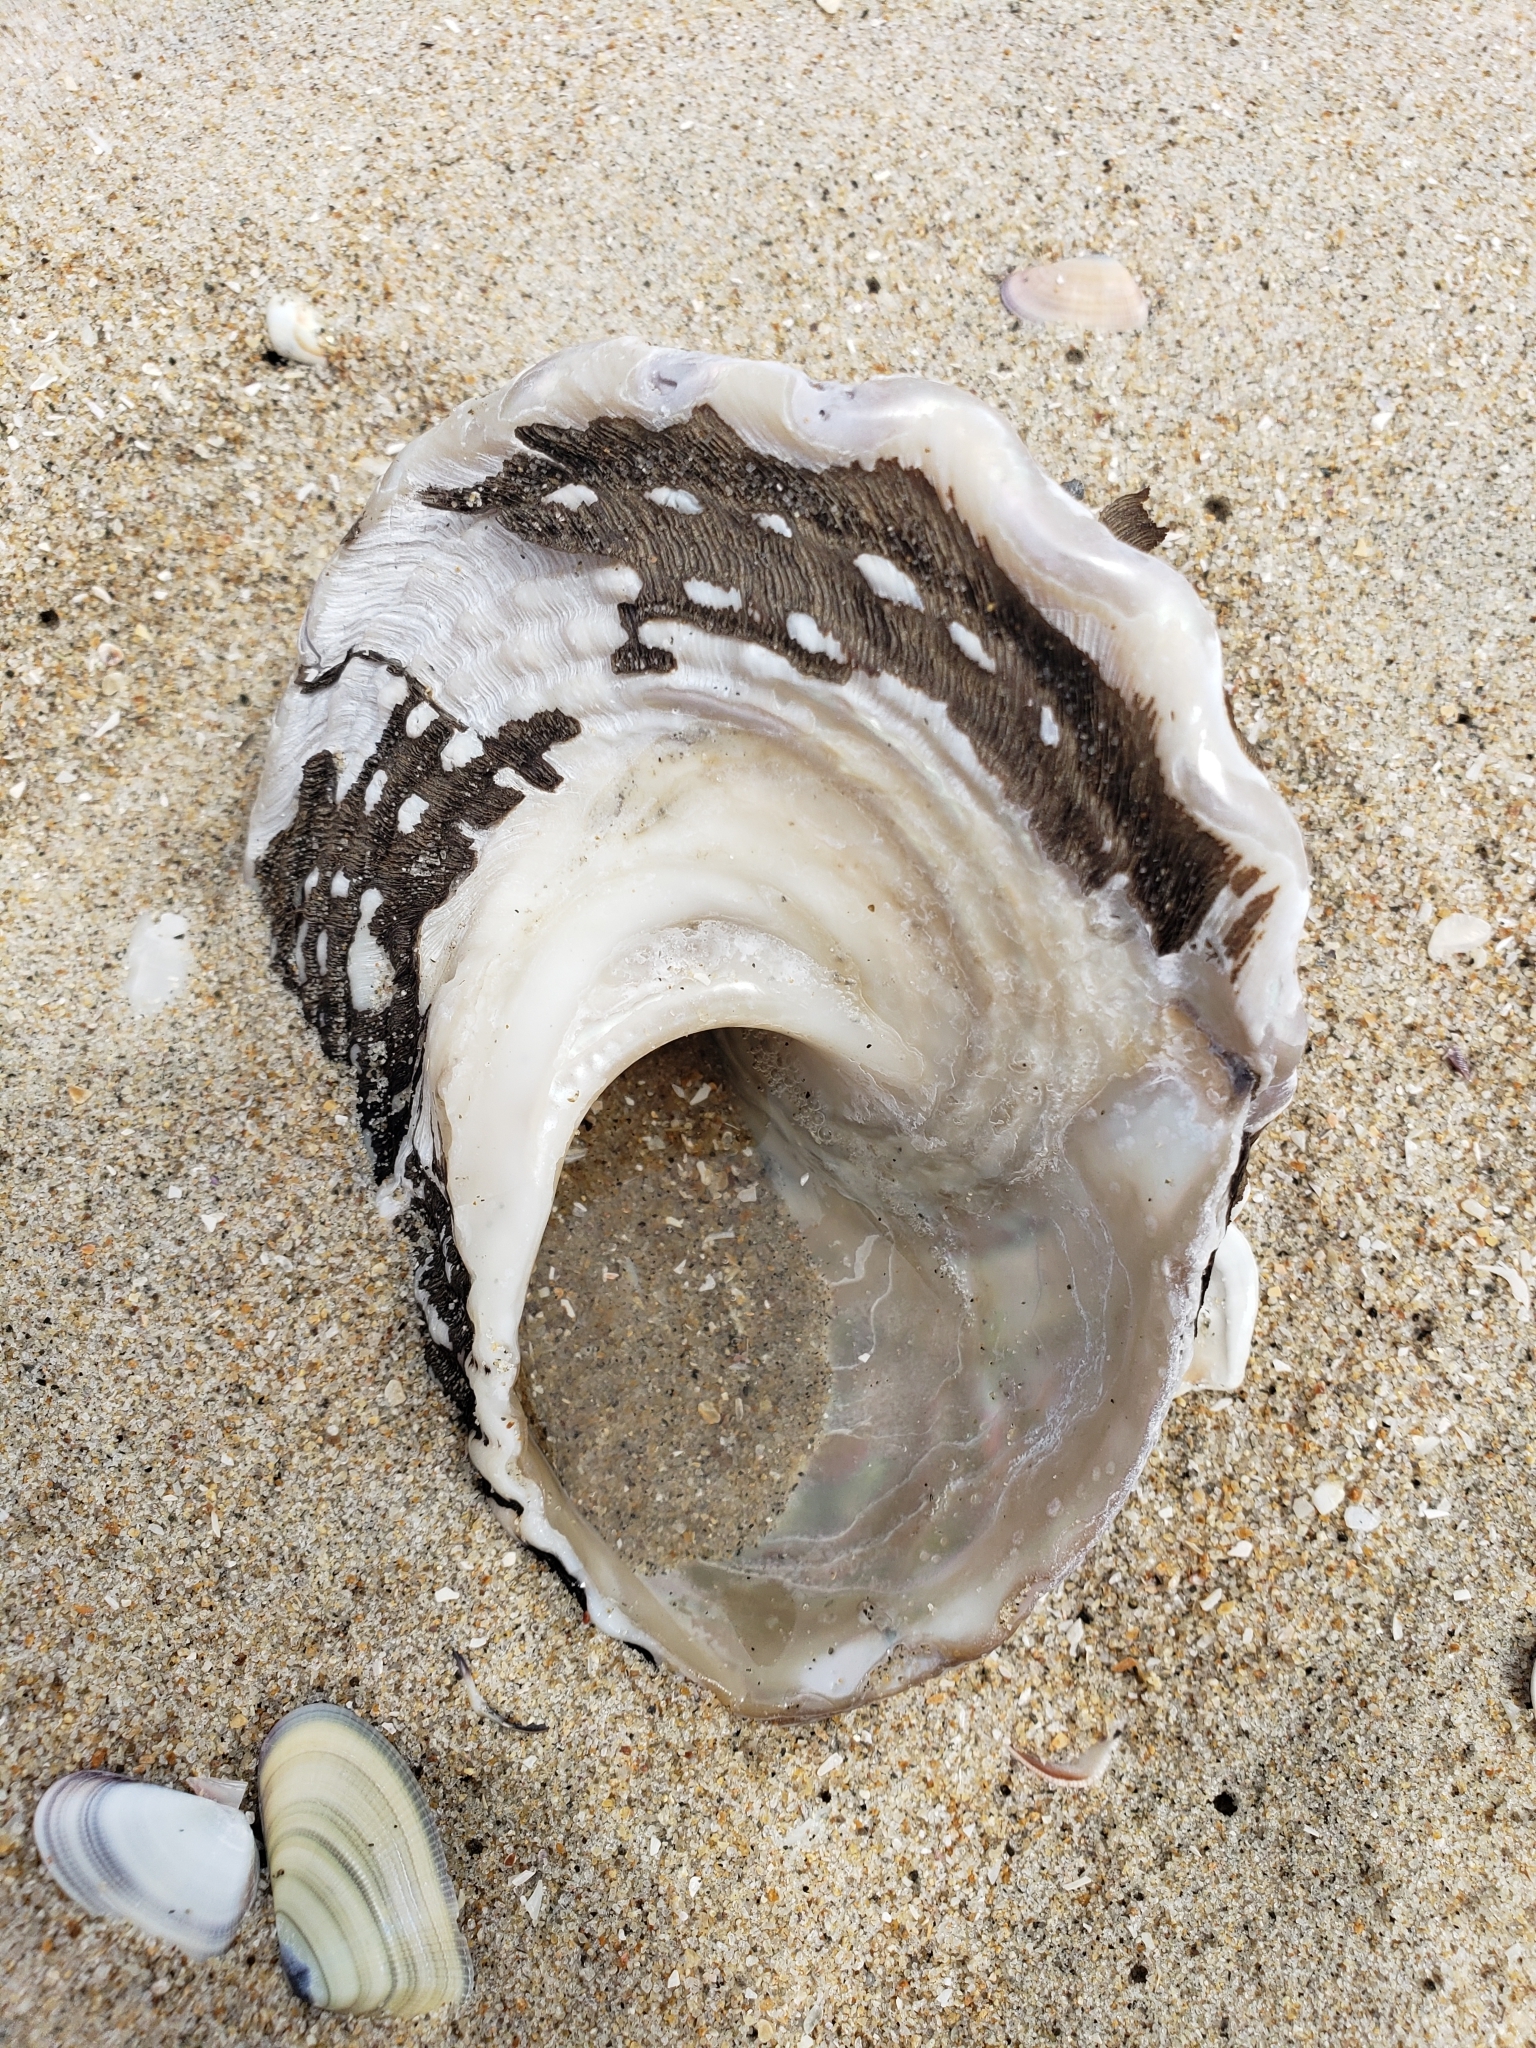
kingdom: Animalia
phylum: Mollusca
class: Gastropoda
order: Trochida
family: Turbinidae
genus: Megastraea
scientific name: Megastraea undosa
